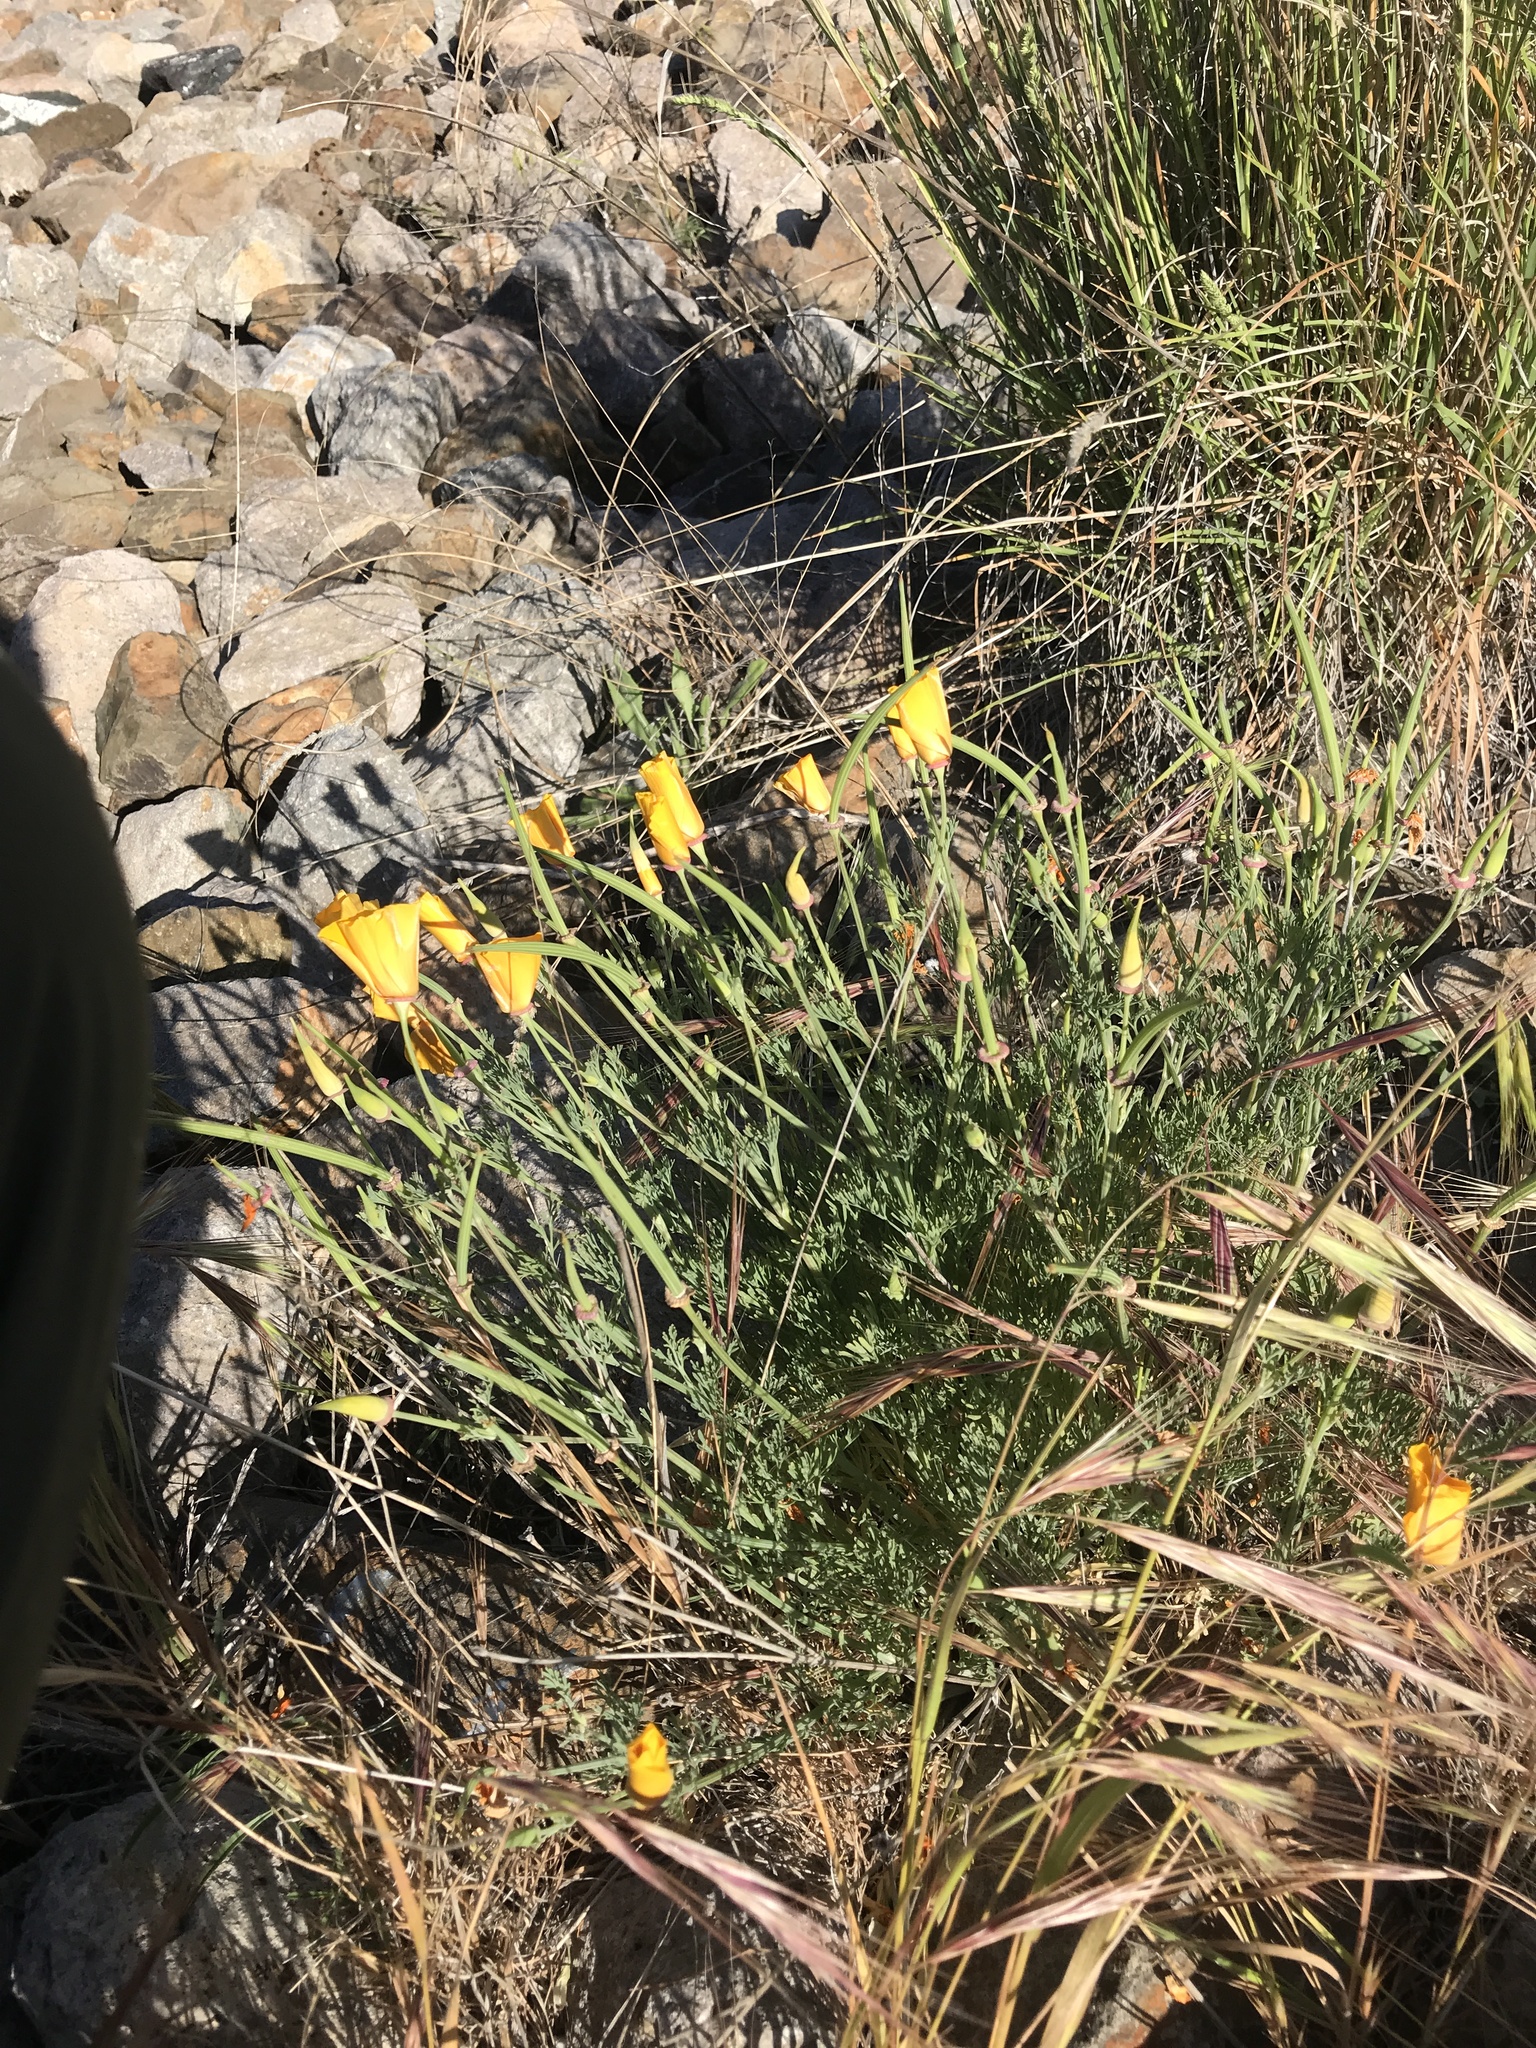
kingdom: Plantae
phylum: Tracheophyta
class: Magnoliopsida
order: Ranunculales
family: Papaveraceae
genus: Eschscholzia
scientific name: Eschscholzia californica
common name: California poppy
